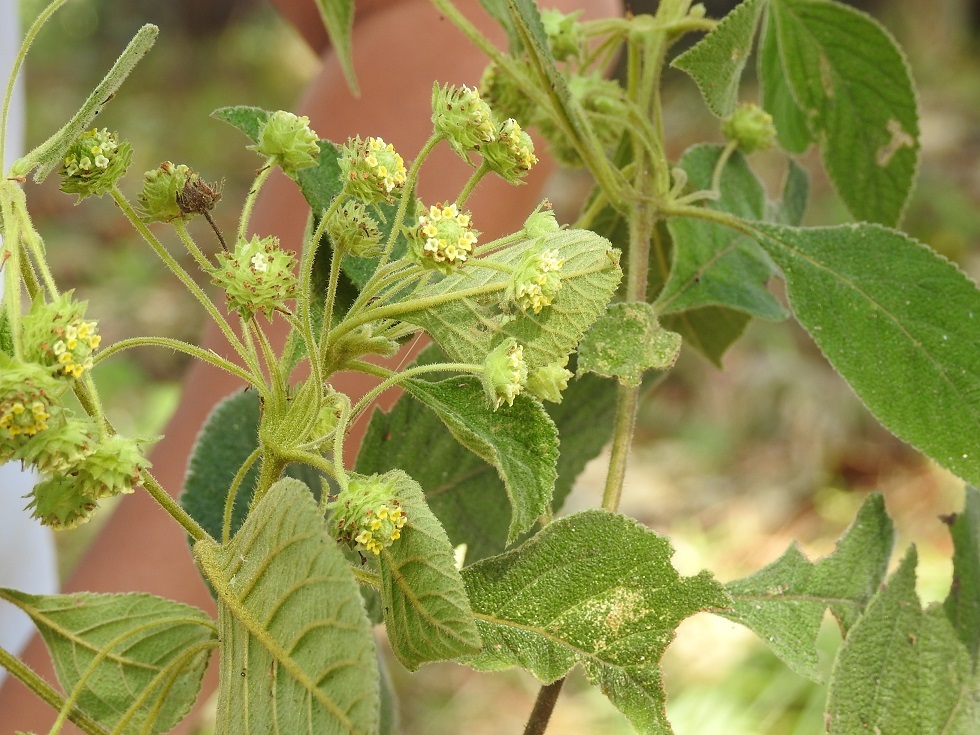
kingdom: Plantae
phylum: Tracheophyta
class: Magnoliopsida
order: Lamiales
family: Verbenaceae
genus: Lippia
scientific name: Lippia umbellata
